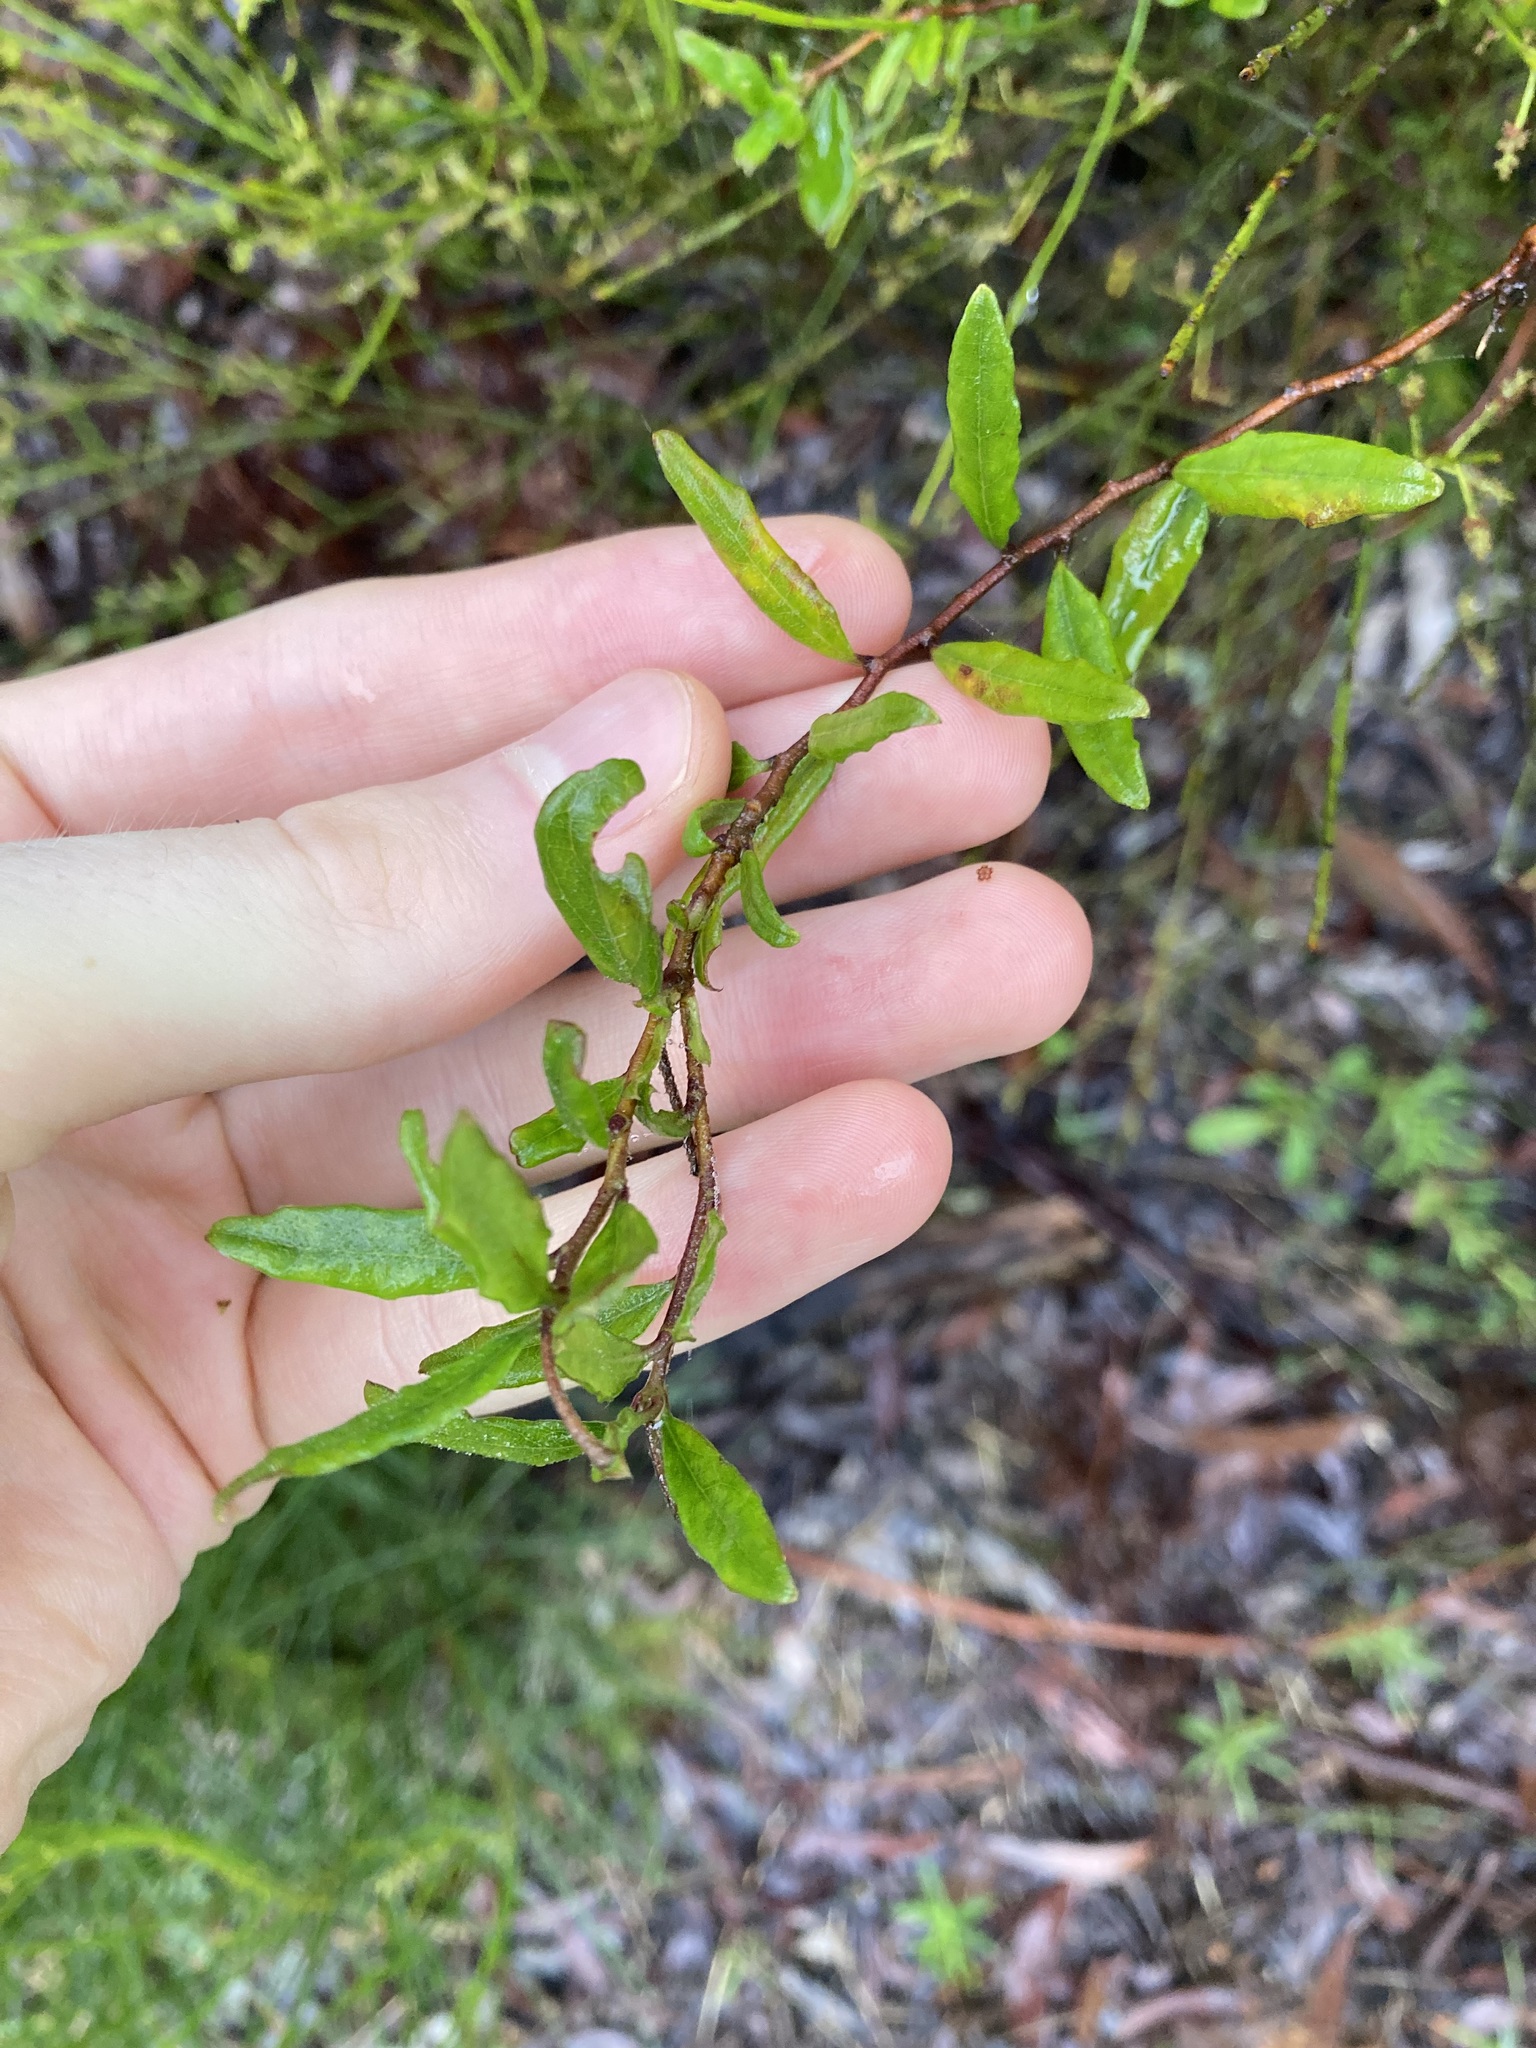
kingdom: Plantae
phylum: Tracheophyta
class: Magnoliopsida
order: Apiales
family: Pittosporaceae
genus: Billardiera
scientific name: Billardiera scandens
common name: Apple-berry
